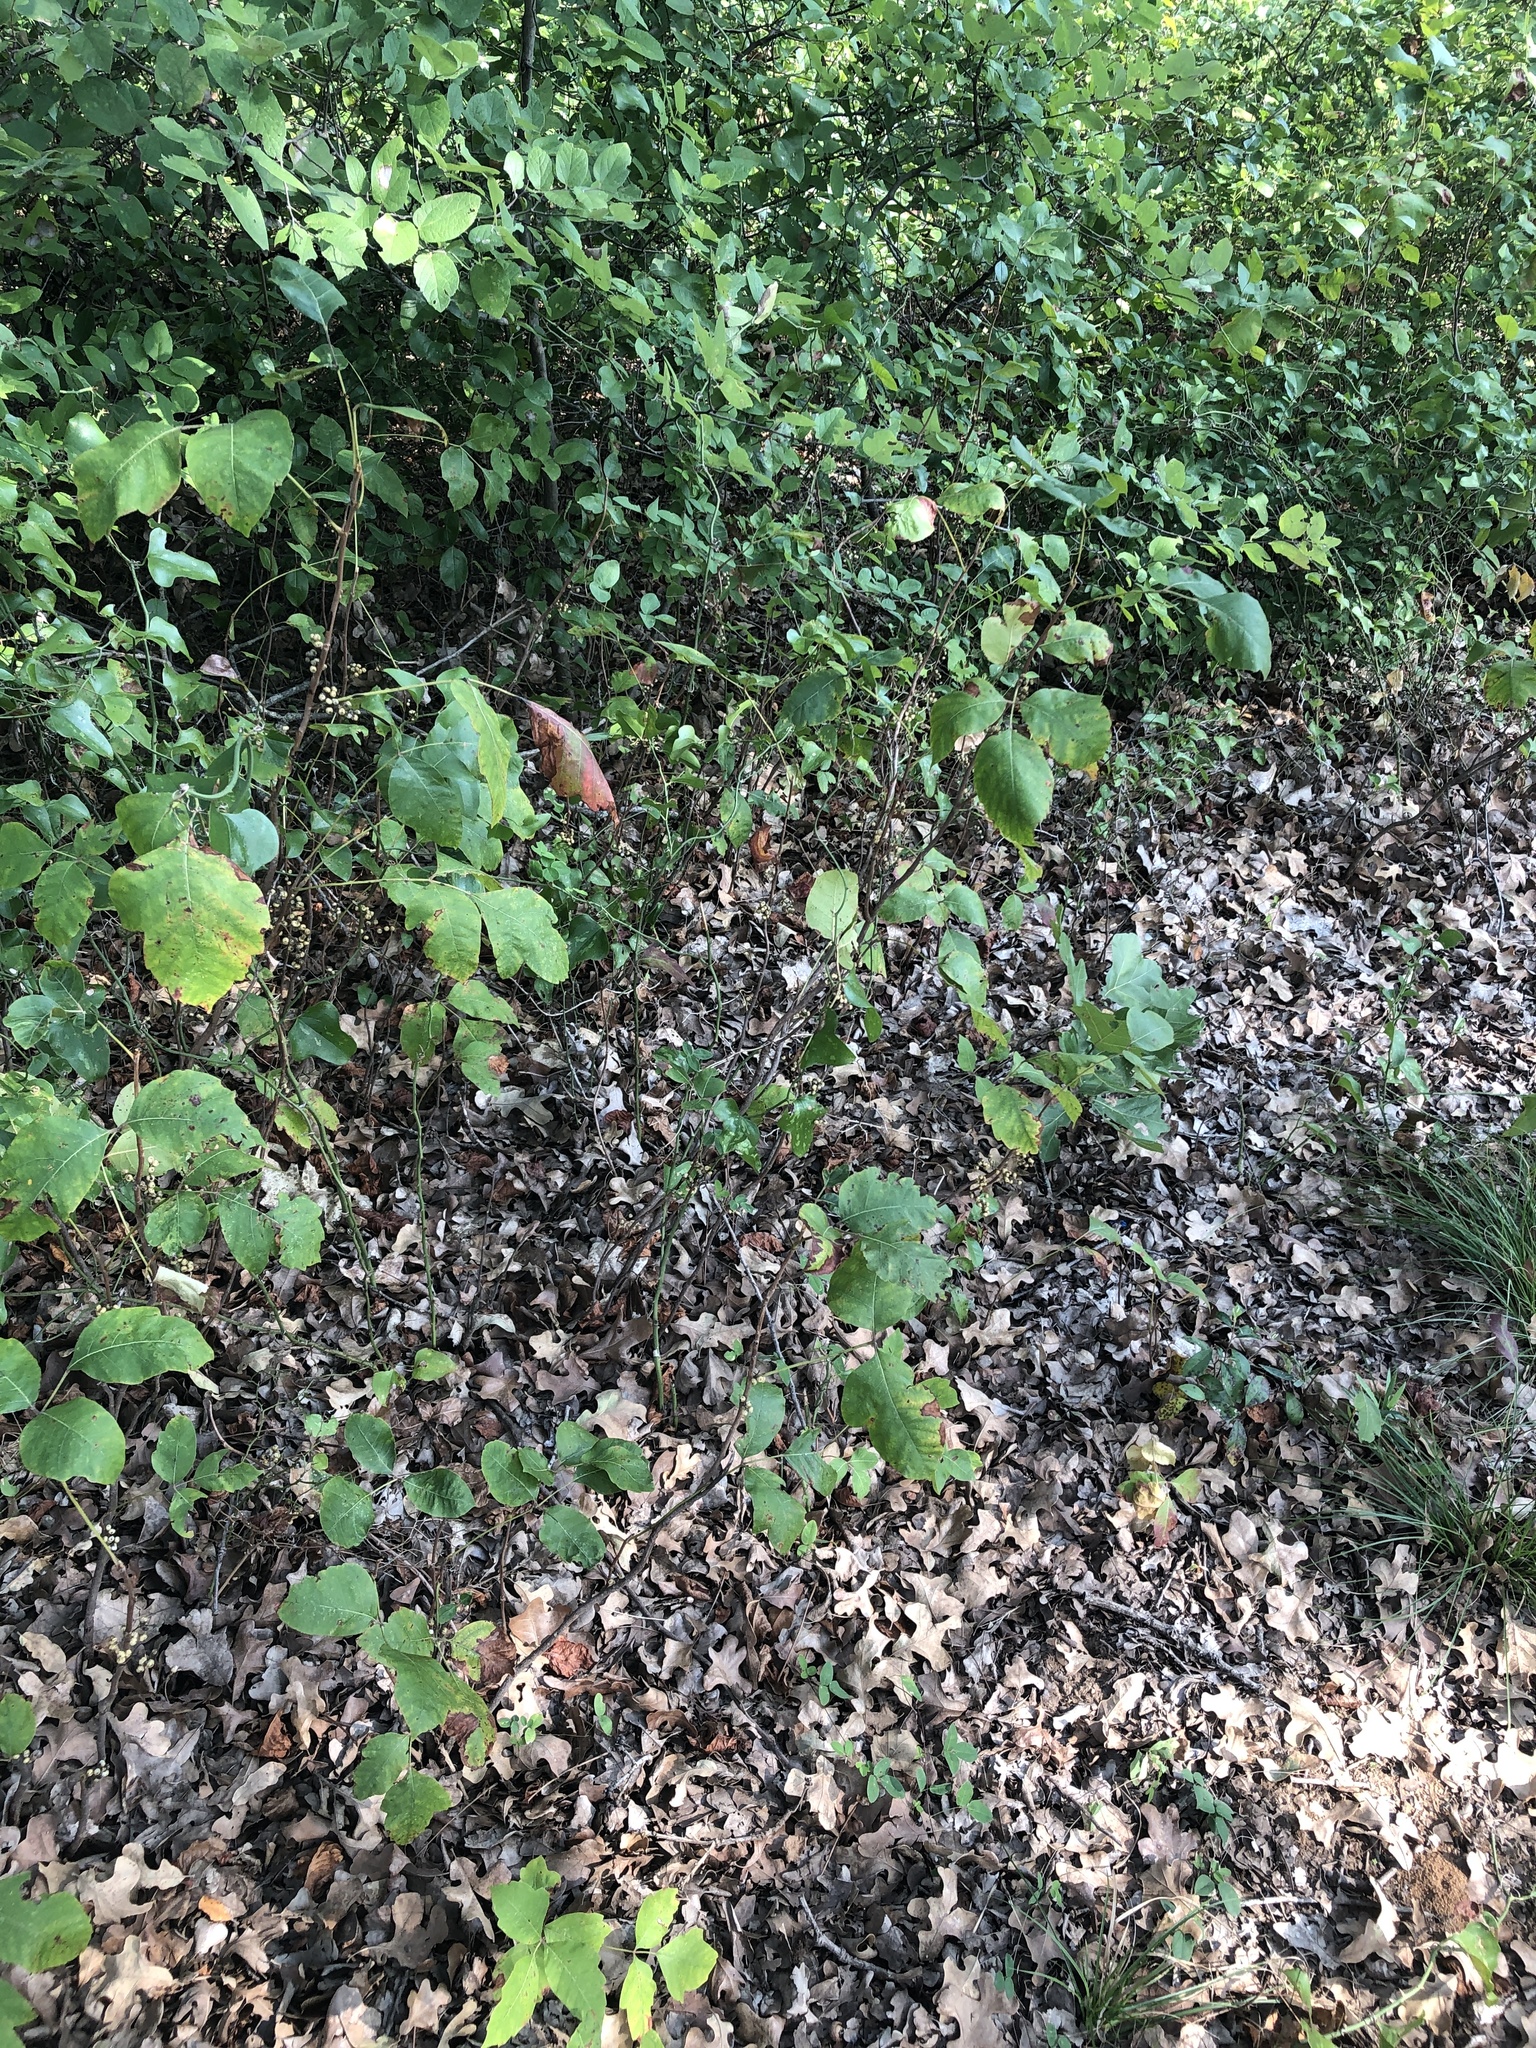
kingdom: Plantae
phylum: Tracheophyta
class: Magnoliopsida
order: Sapindales
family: Anacardiaceae
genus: Toxicodendron
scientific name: Toxicodendron radicans
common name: Poison ivy
